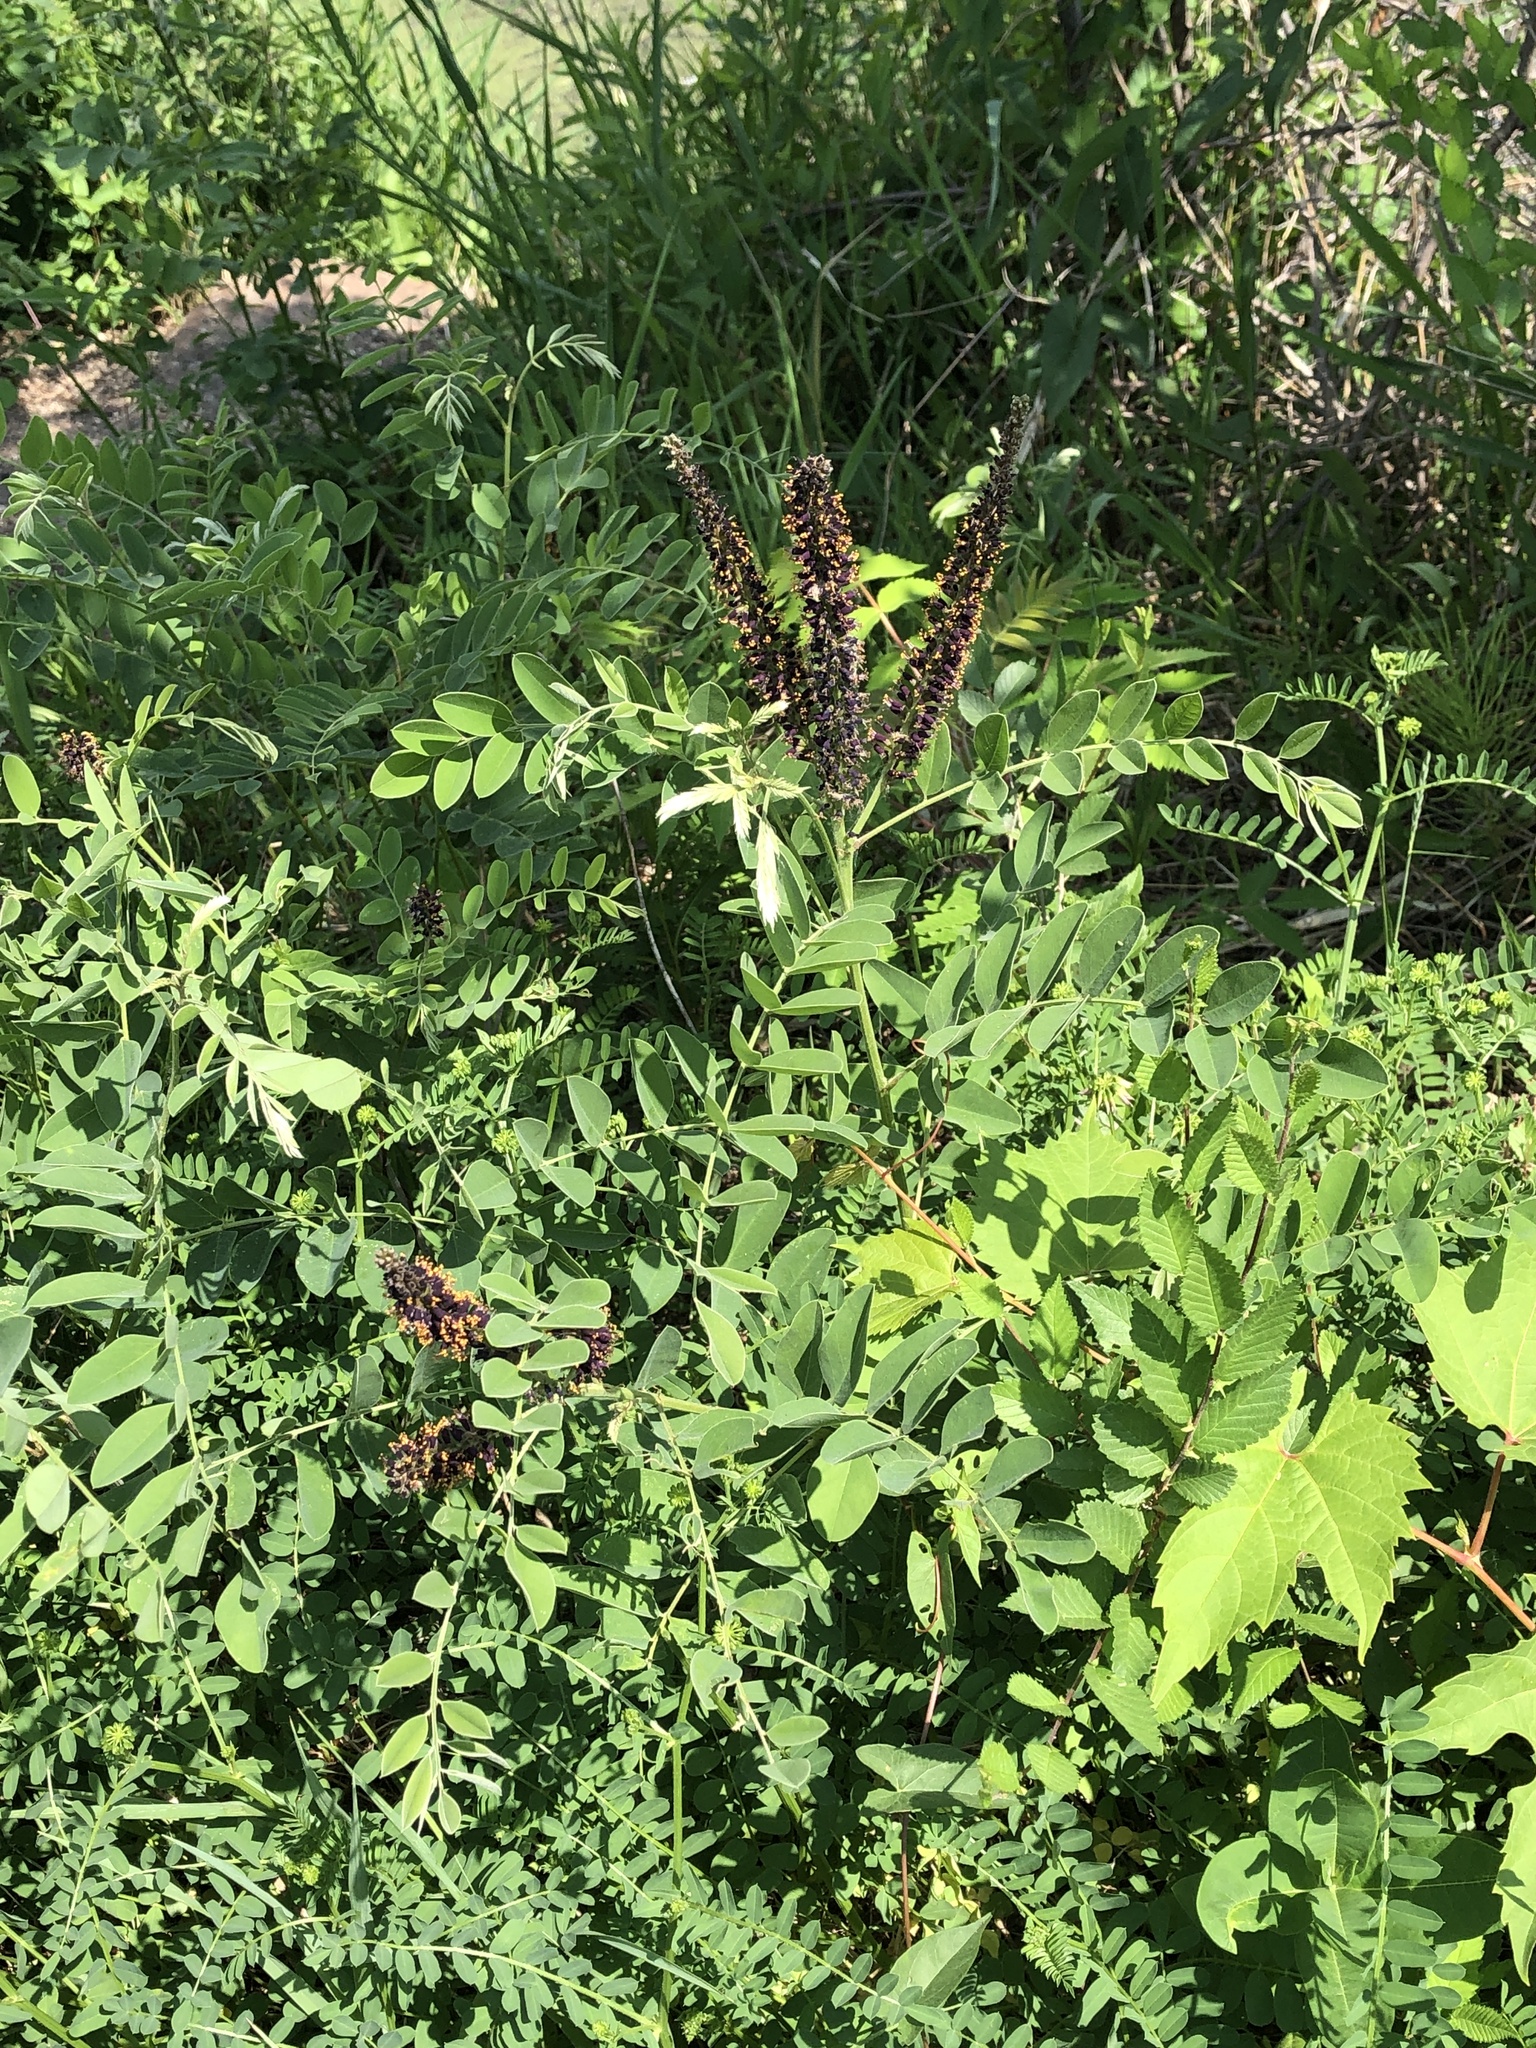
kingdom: Plantae
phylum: Tracheophyta
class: Magnoliopsida
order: Fabales
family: Fabaceae
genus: Amorpha
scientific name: Amorpha fruticosa
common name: False indigo
